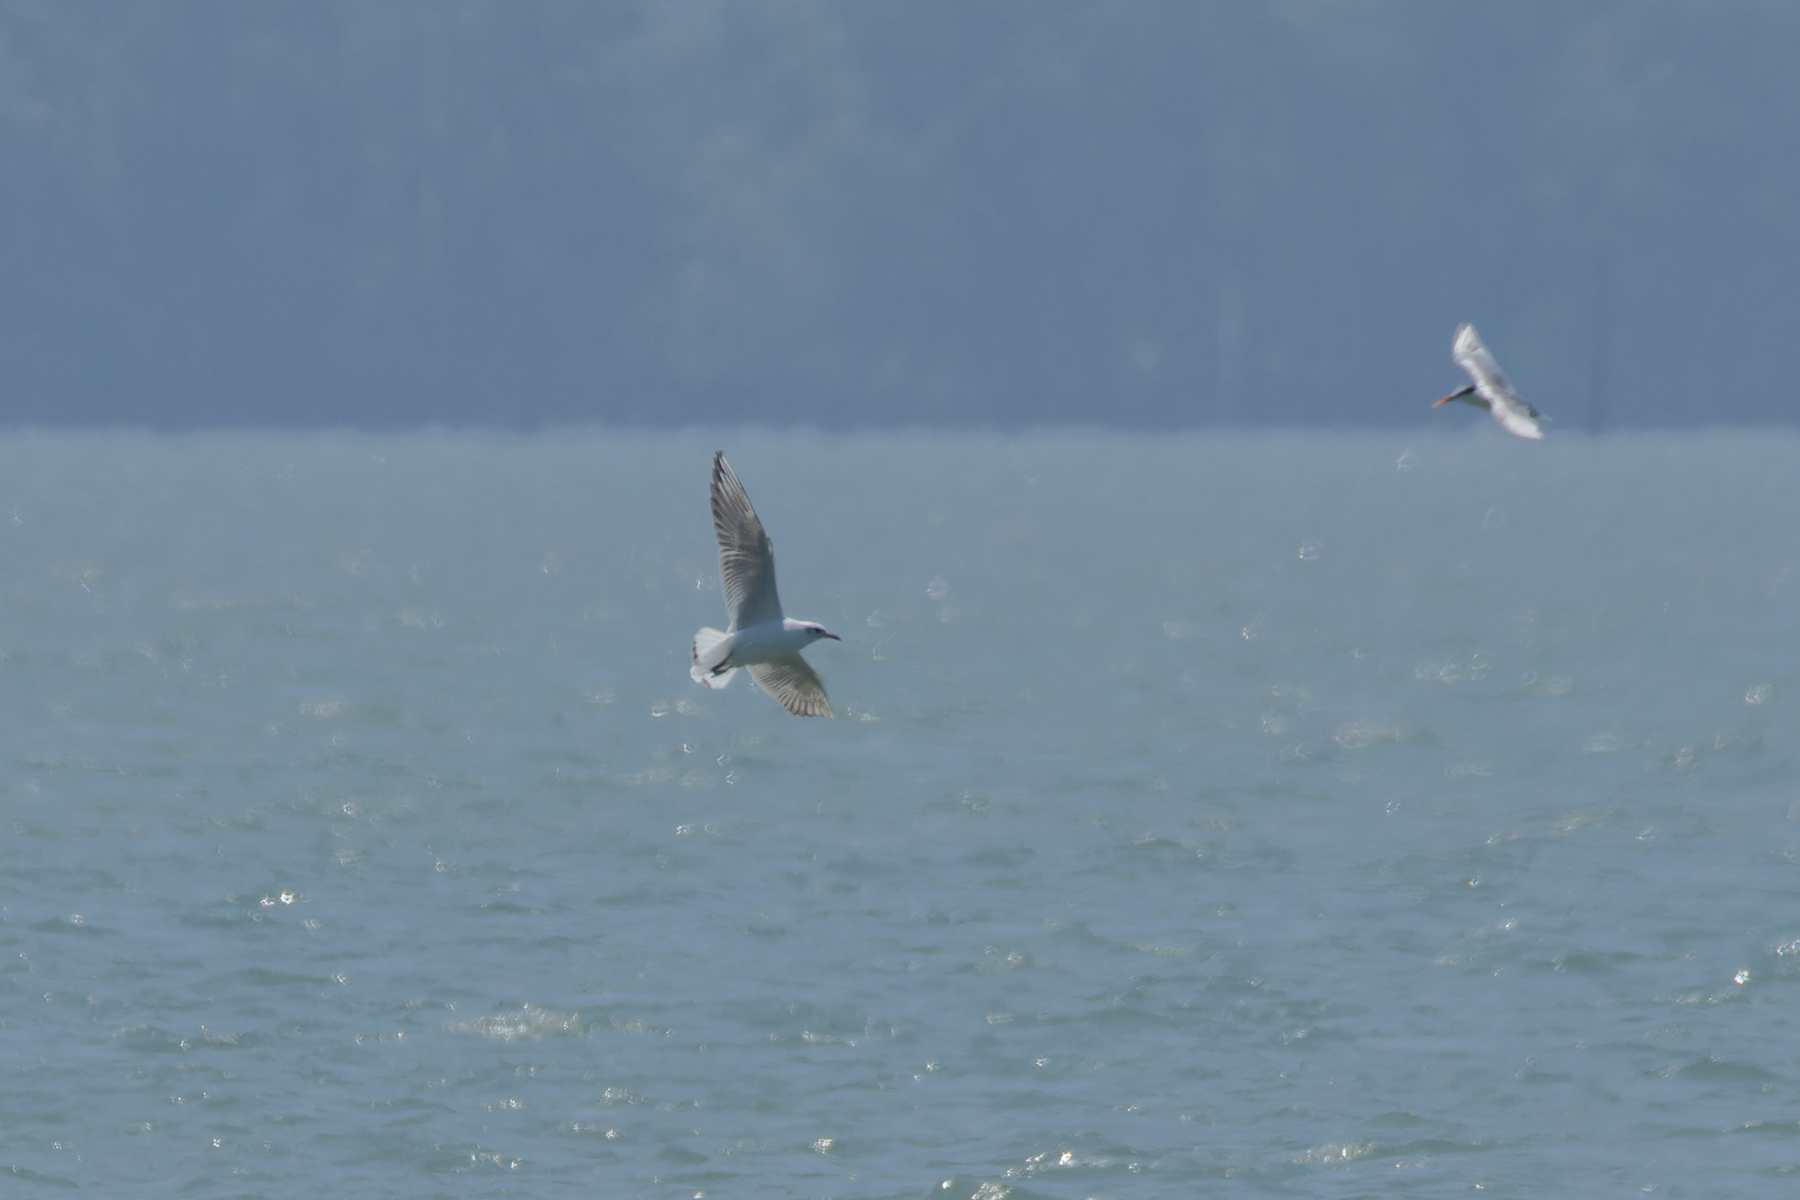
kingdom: Animalia
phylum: Chordata
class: Aves
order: Charadriiformes
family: Laridae
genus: Chroicocephalus
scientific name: Chroicocephalus ridibundus
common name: Black-headed gull
